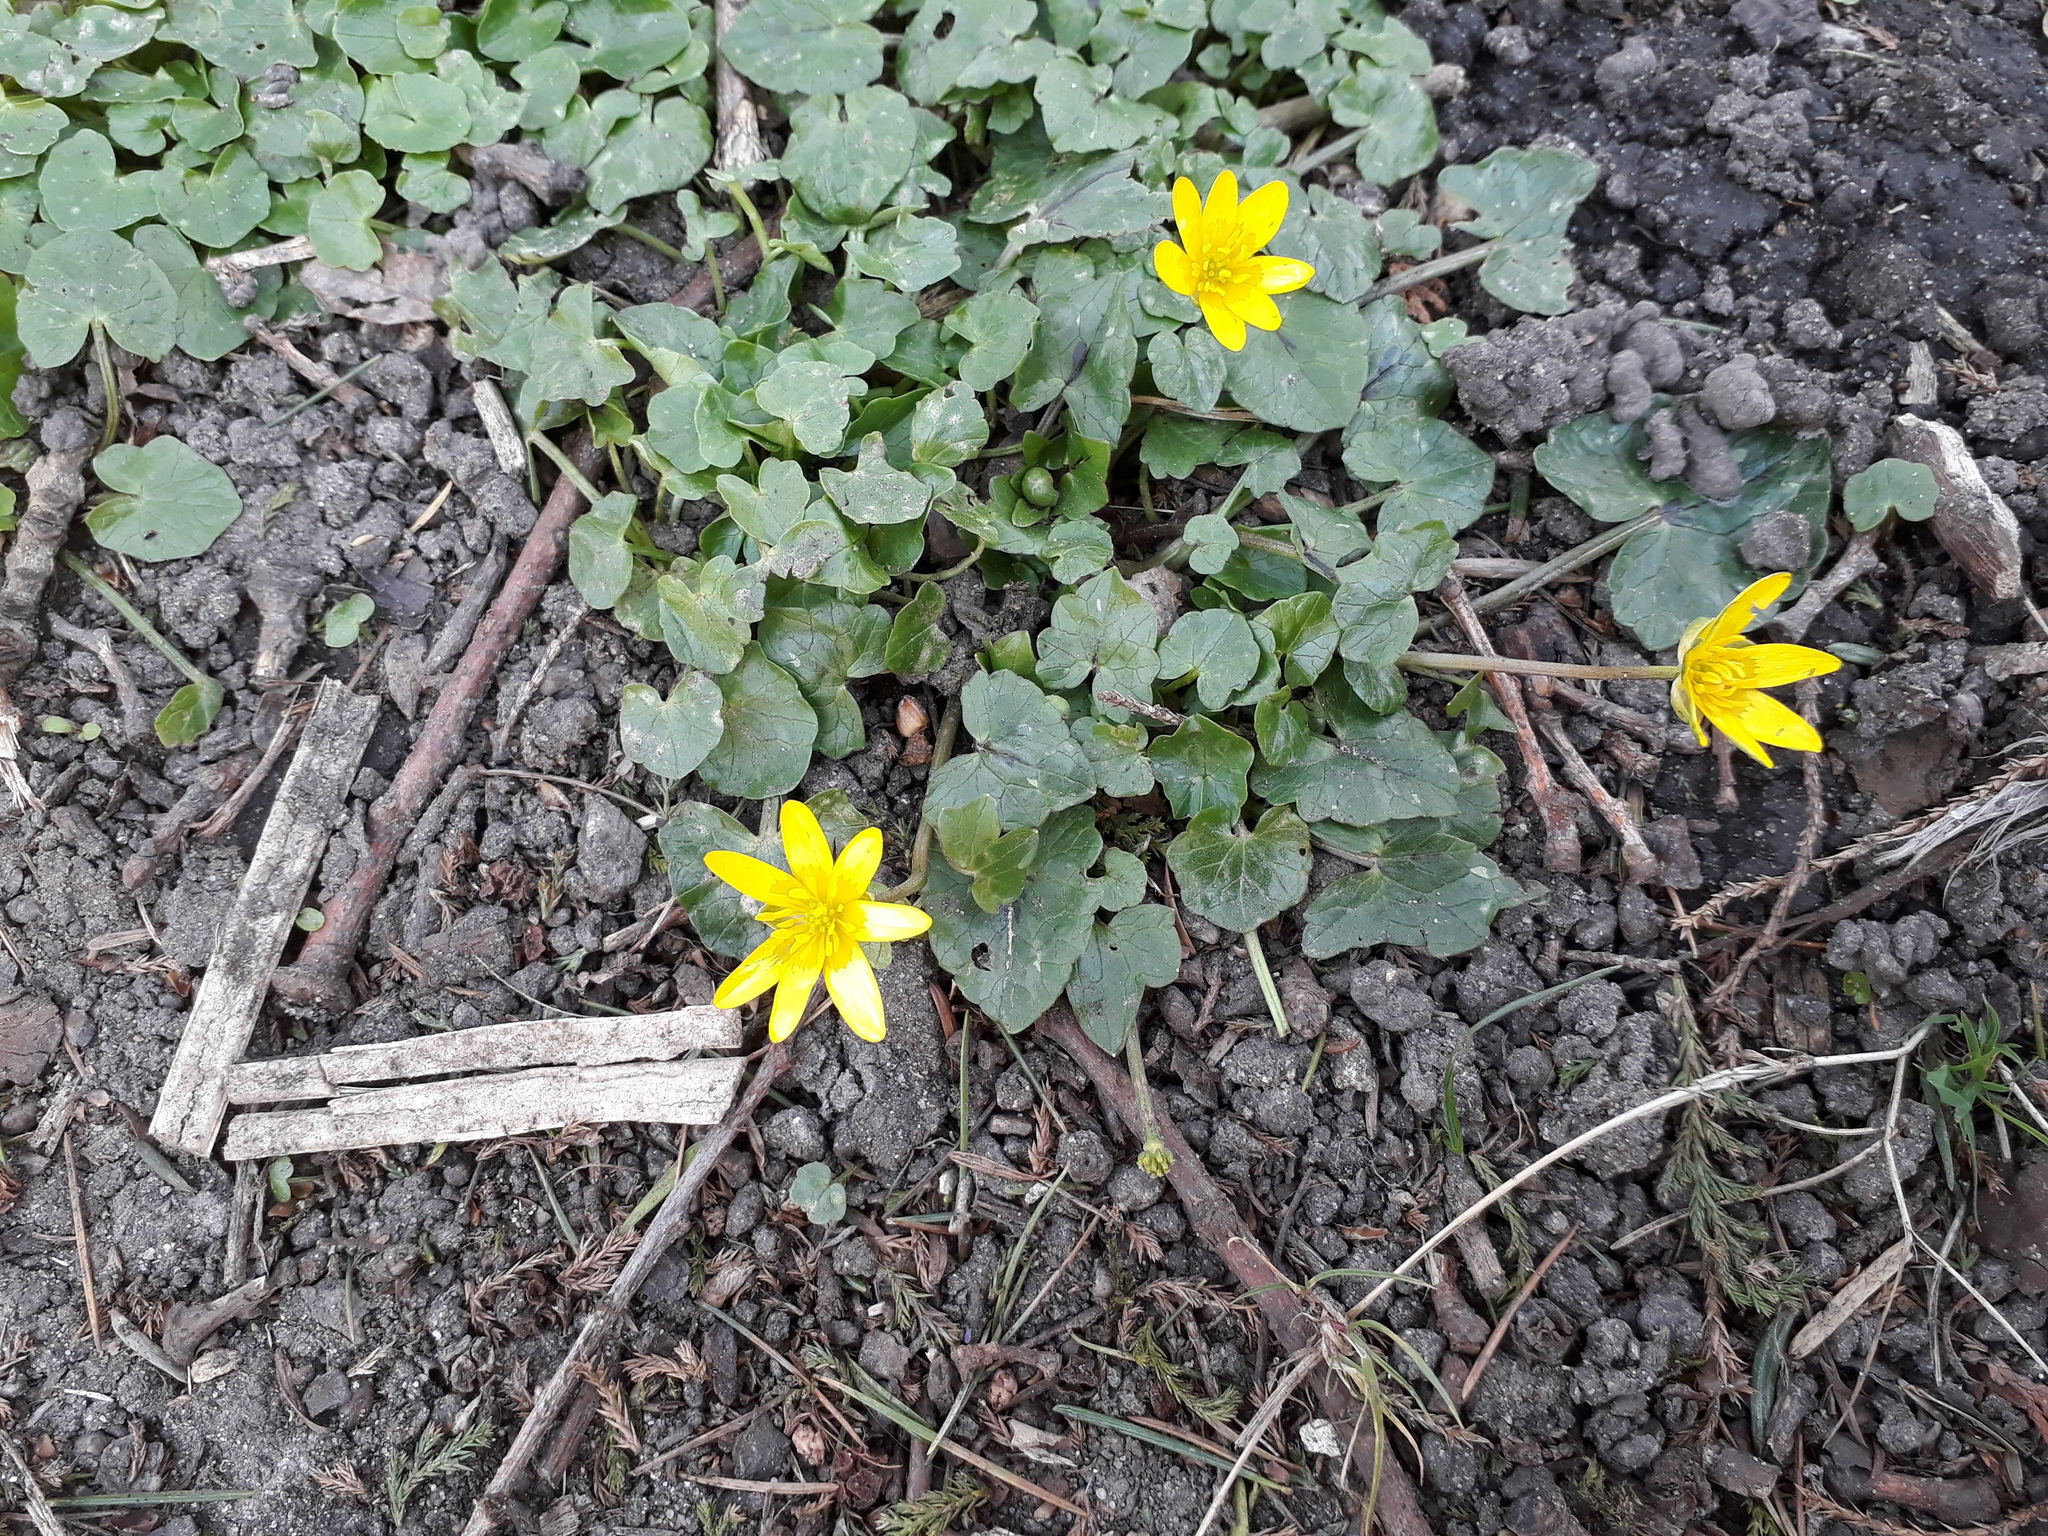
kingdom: Plantae
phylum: Tracheophyta
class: Magnoliopsida
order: Ranunculales
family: Ranunculaceae
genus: Ficaria
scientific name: Ficaria verna
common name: Lesser celandine
